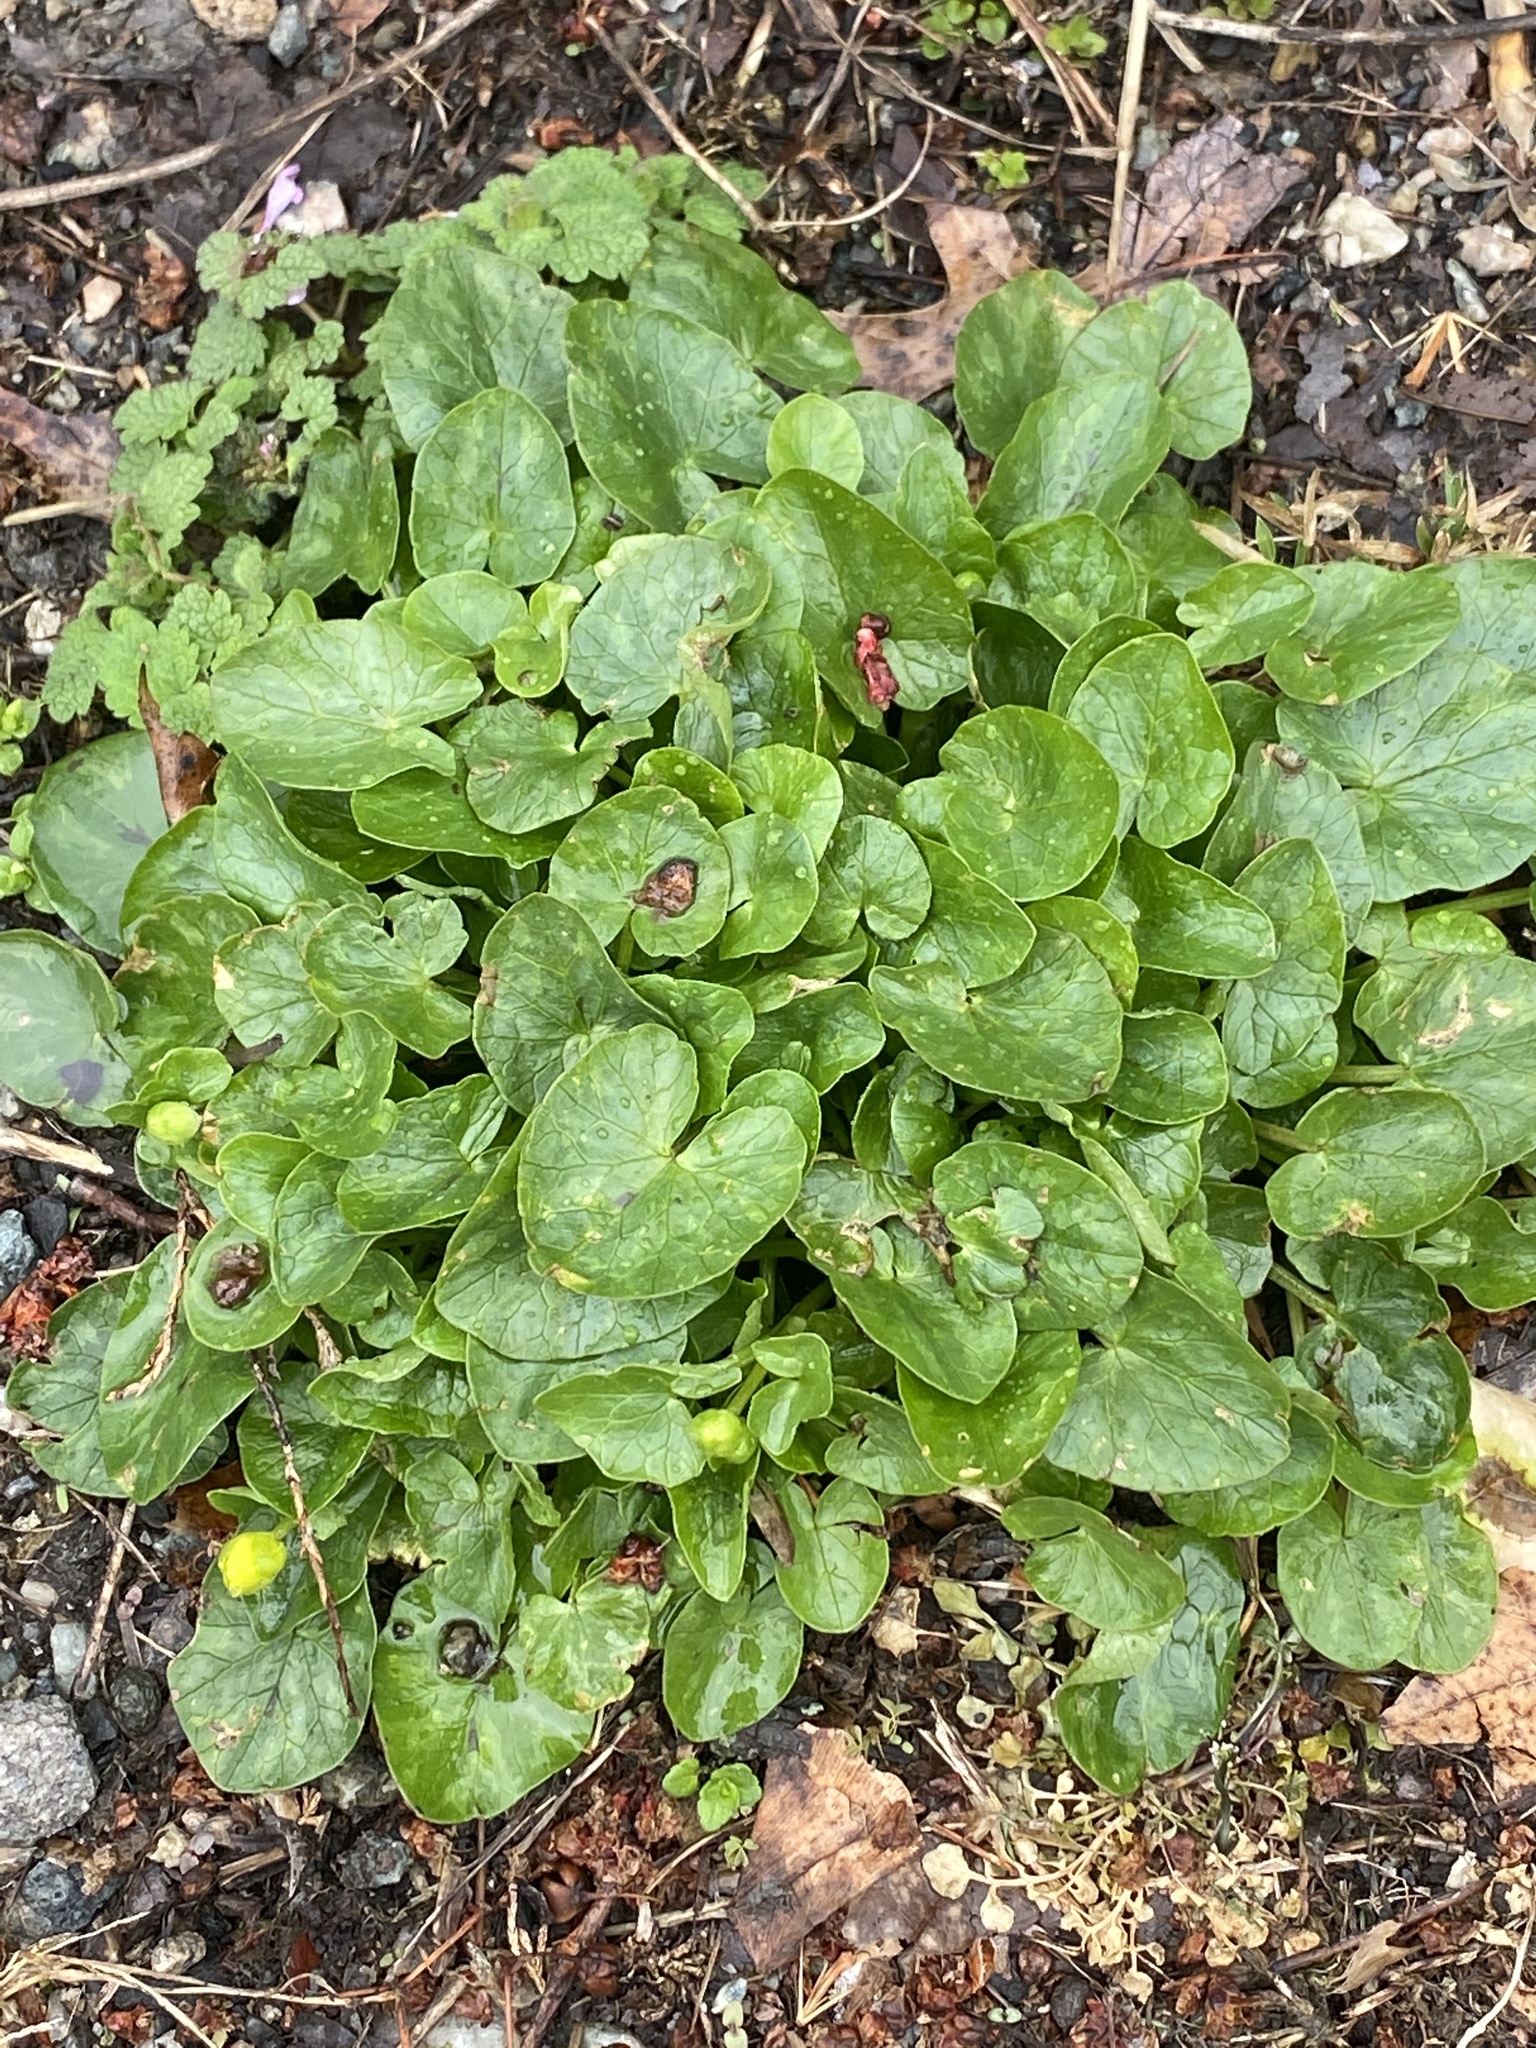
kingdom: Plantae
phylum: Tracheophyta
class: Magnoliopsida
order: Ranunculales
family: Ranunculaceae
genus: Ficaria
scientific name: Ficaria verna
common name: Lesser celandine
